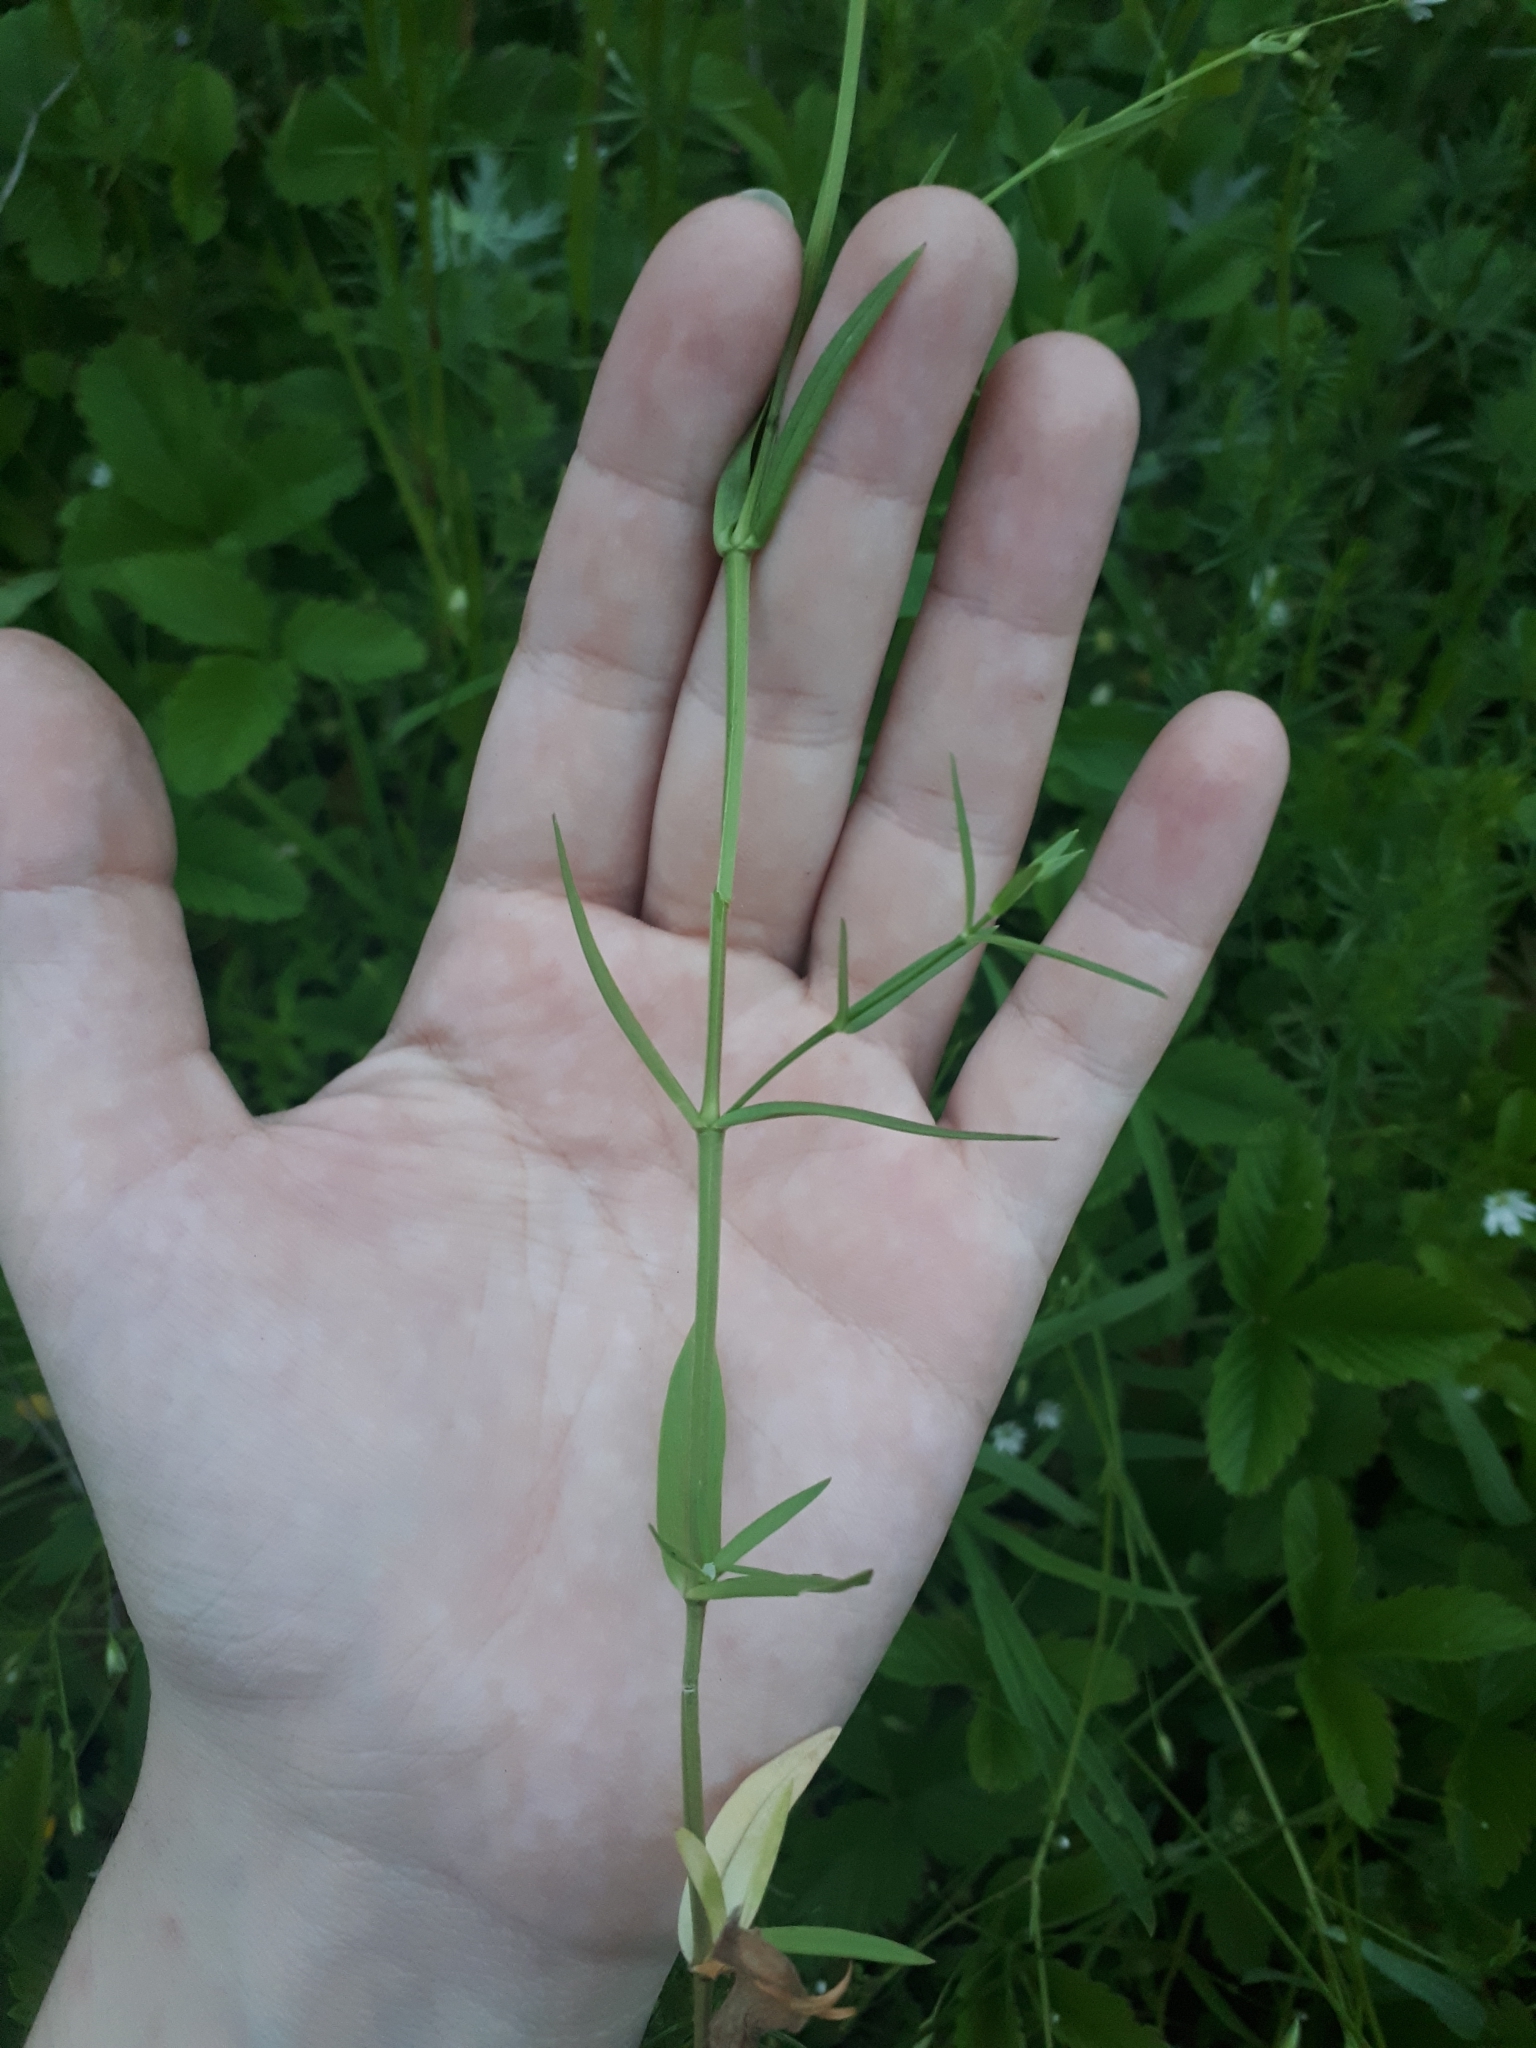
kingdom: Plantae
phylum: Tracheophyta
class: Magnoliopsida
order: Caryophyllales
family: Caryophyllaceae
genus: Stellaria
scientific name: Stellaria graminea
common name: Grass-like starwort
